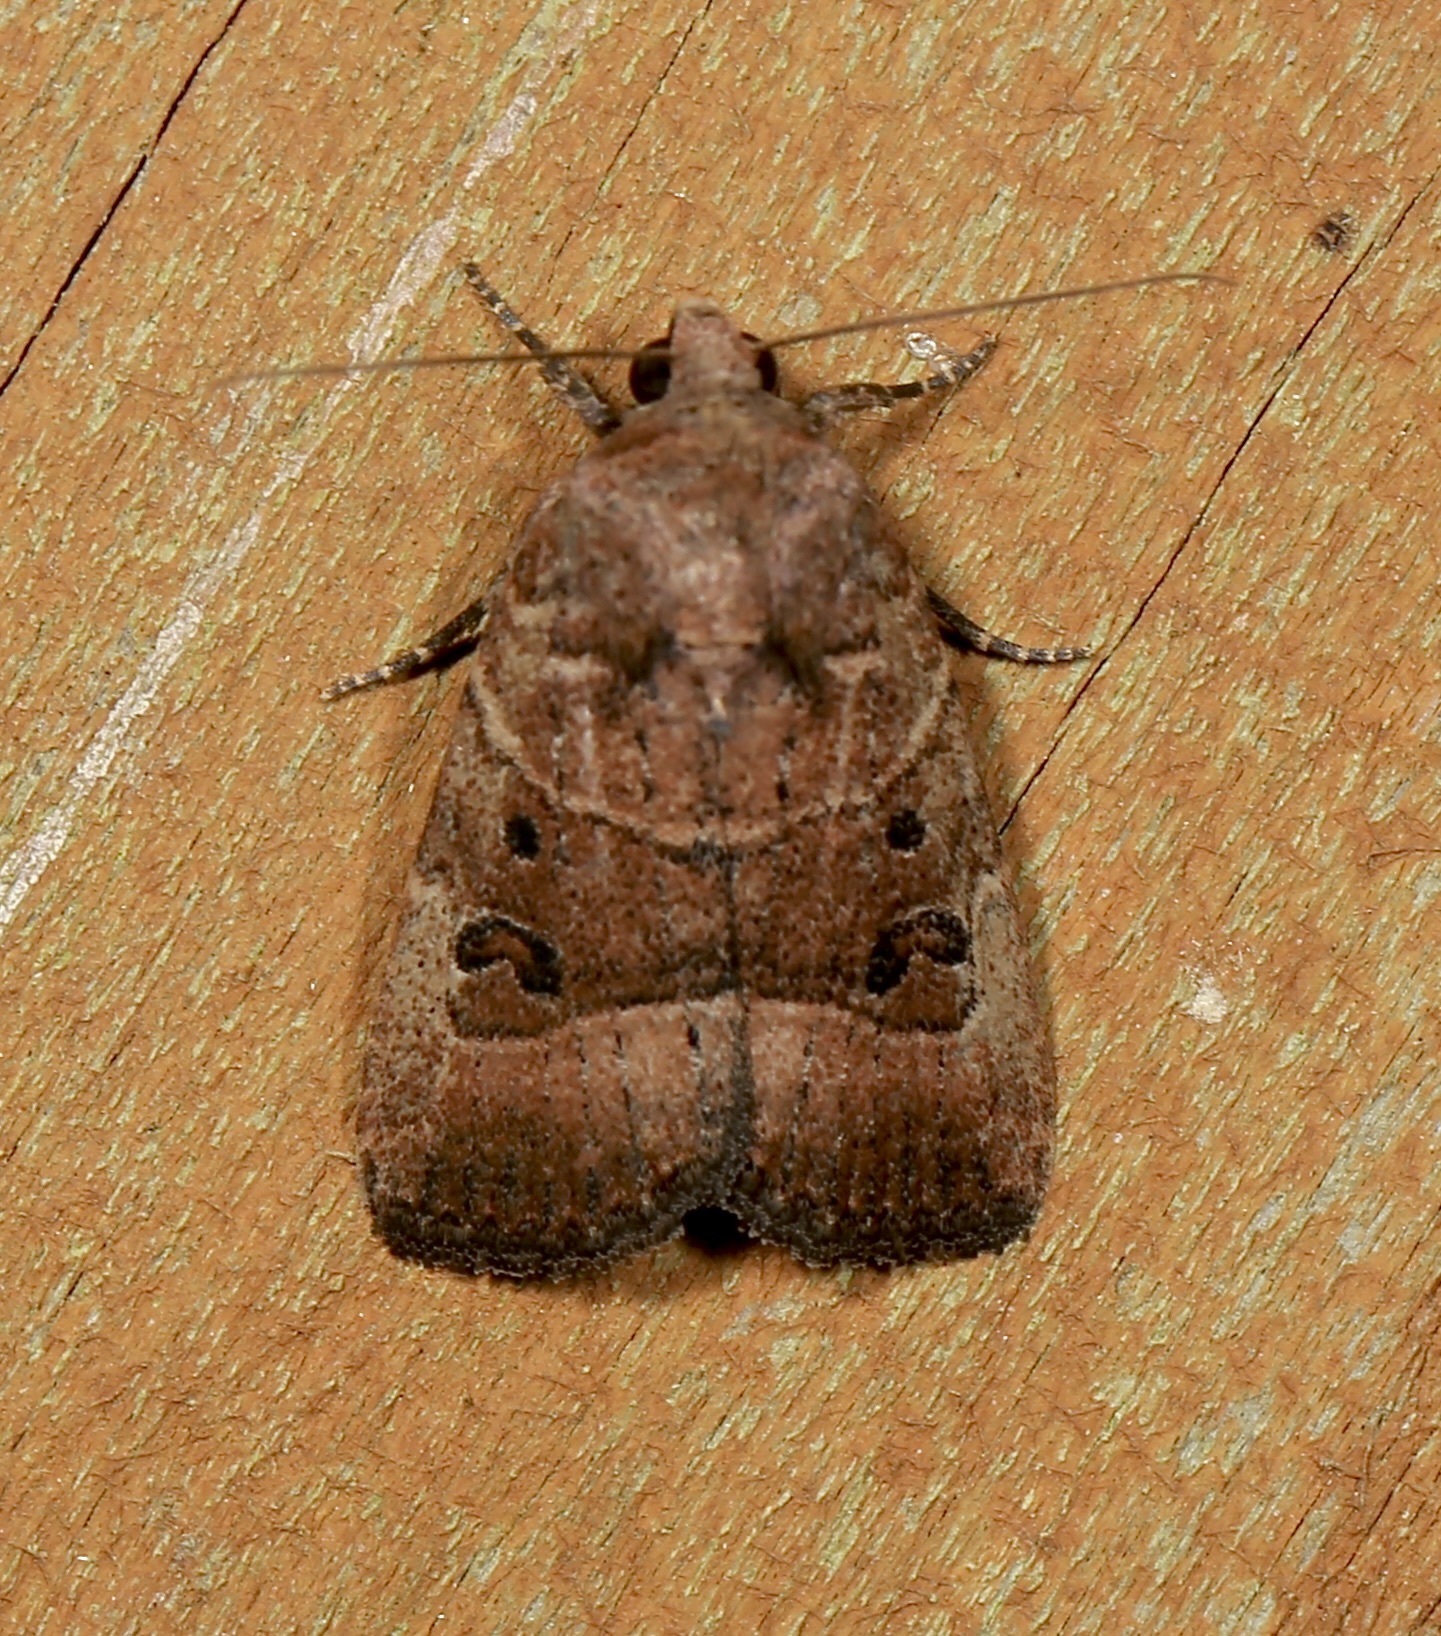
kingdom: Animalia
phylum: Arthropoda
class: Insecta
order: Lepidoptera
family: Noctuidae
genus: Elaphria
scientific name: Elaphria fuscimacula
